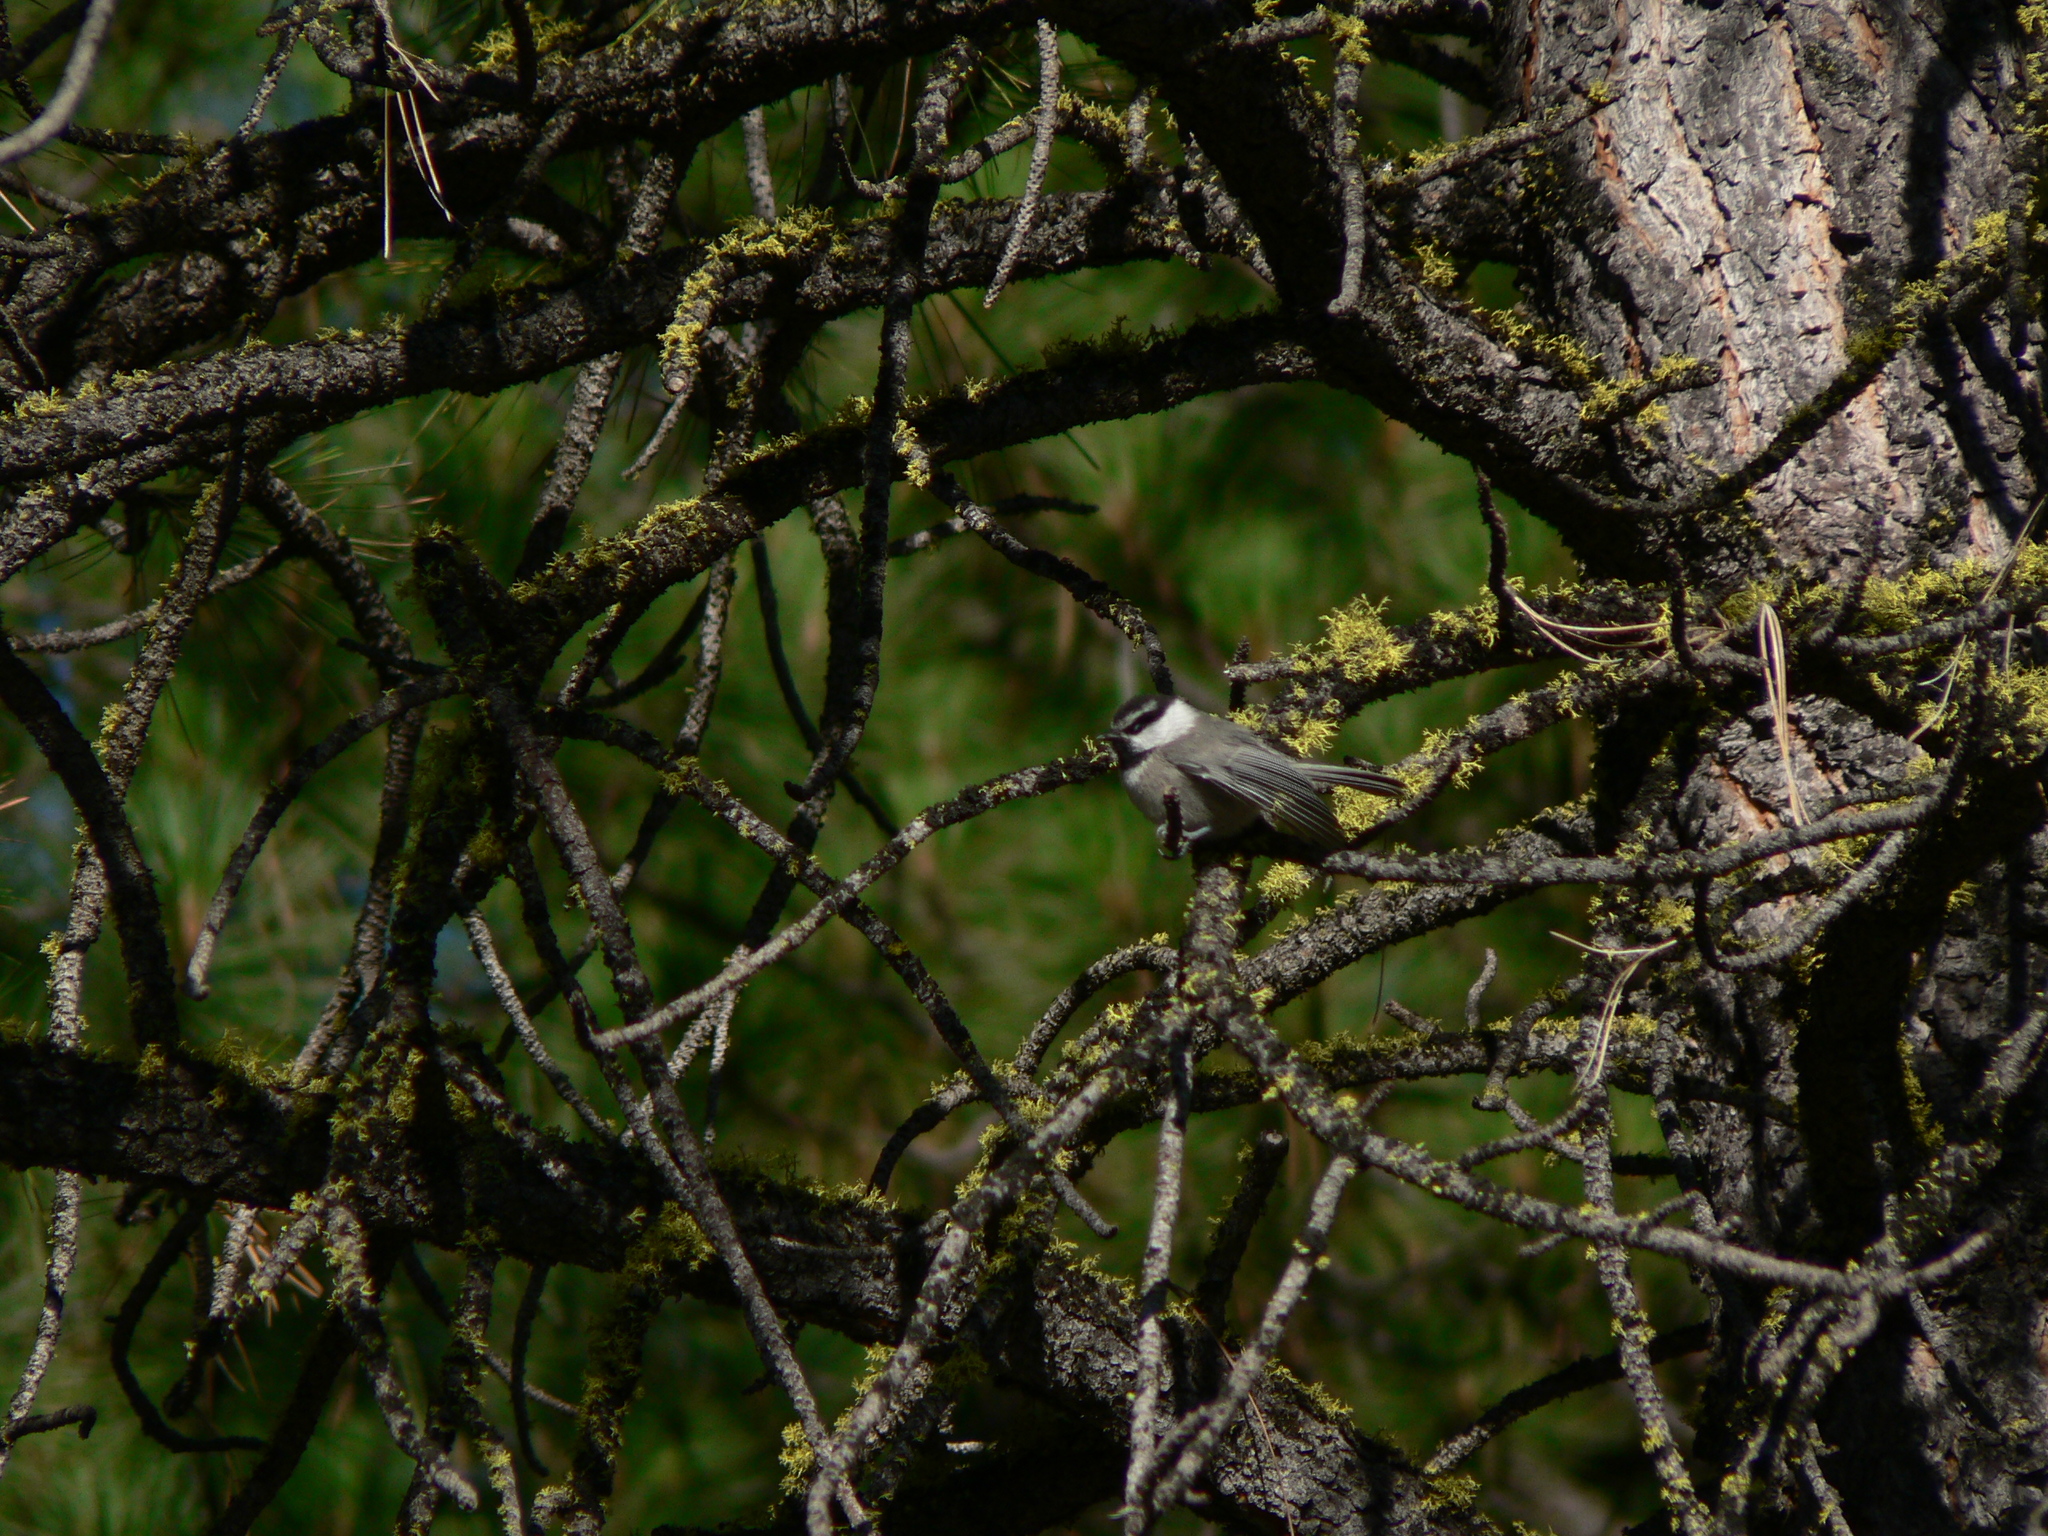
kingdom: Animalia
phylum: Chordata
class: Aves
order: Passeriformes
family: Paridae
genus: Poecile
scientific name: Poecile gambeli
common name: Mountain chickadee
